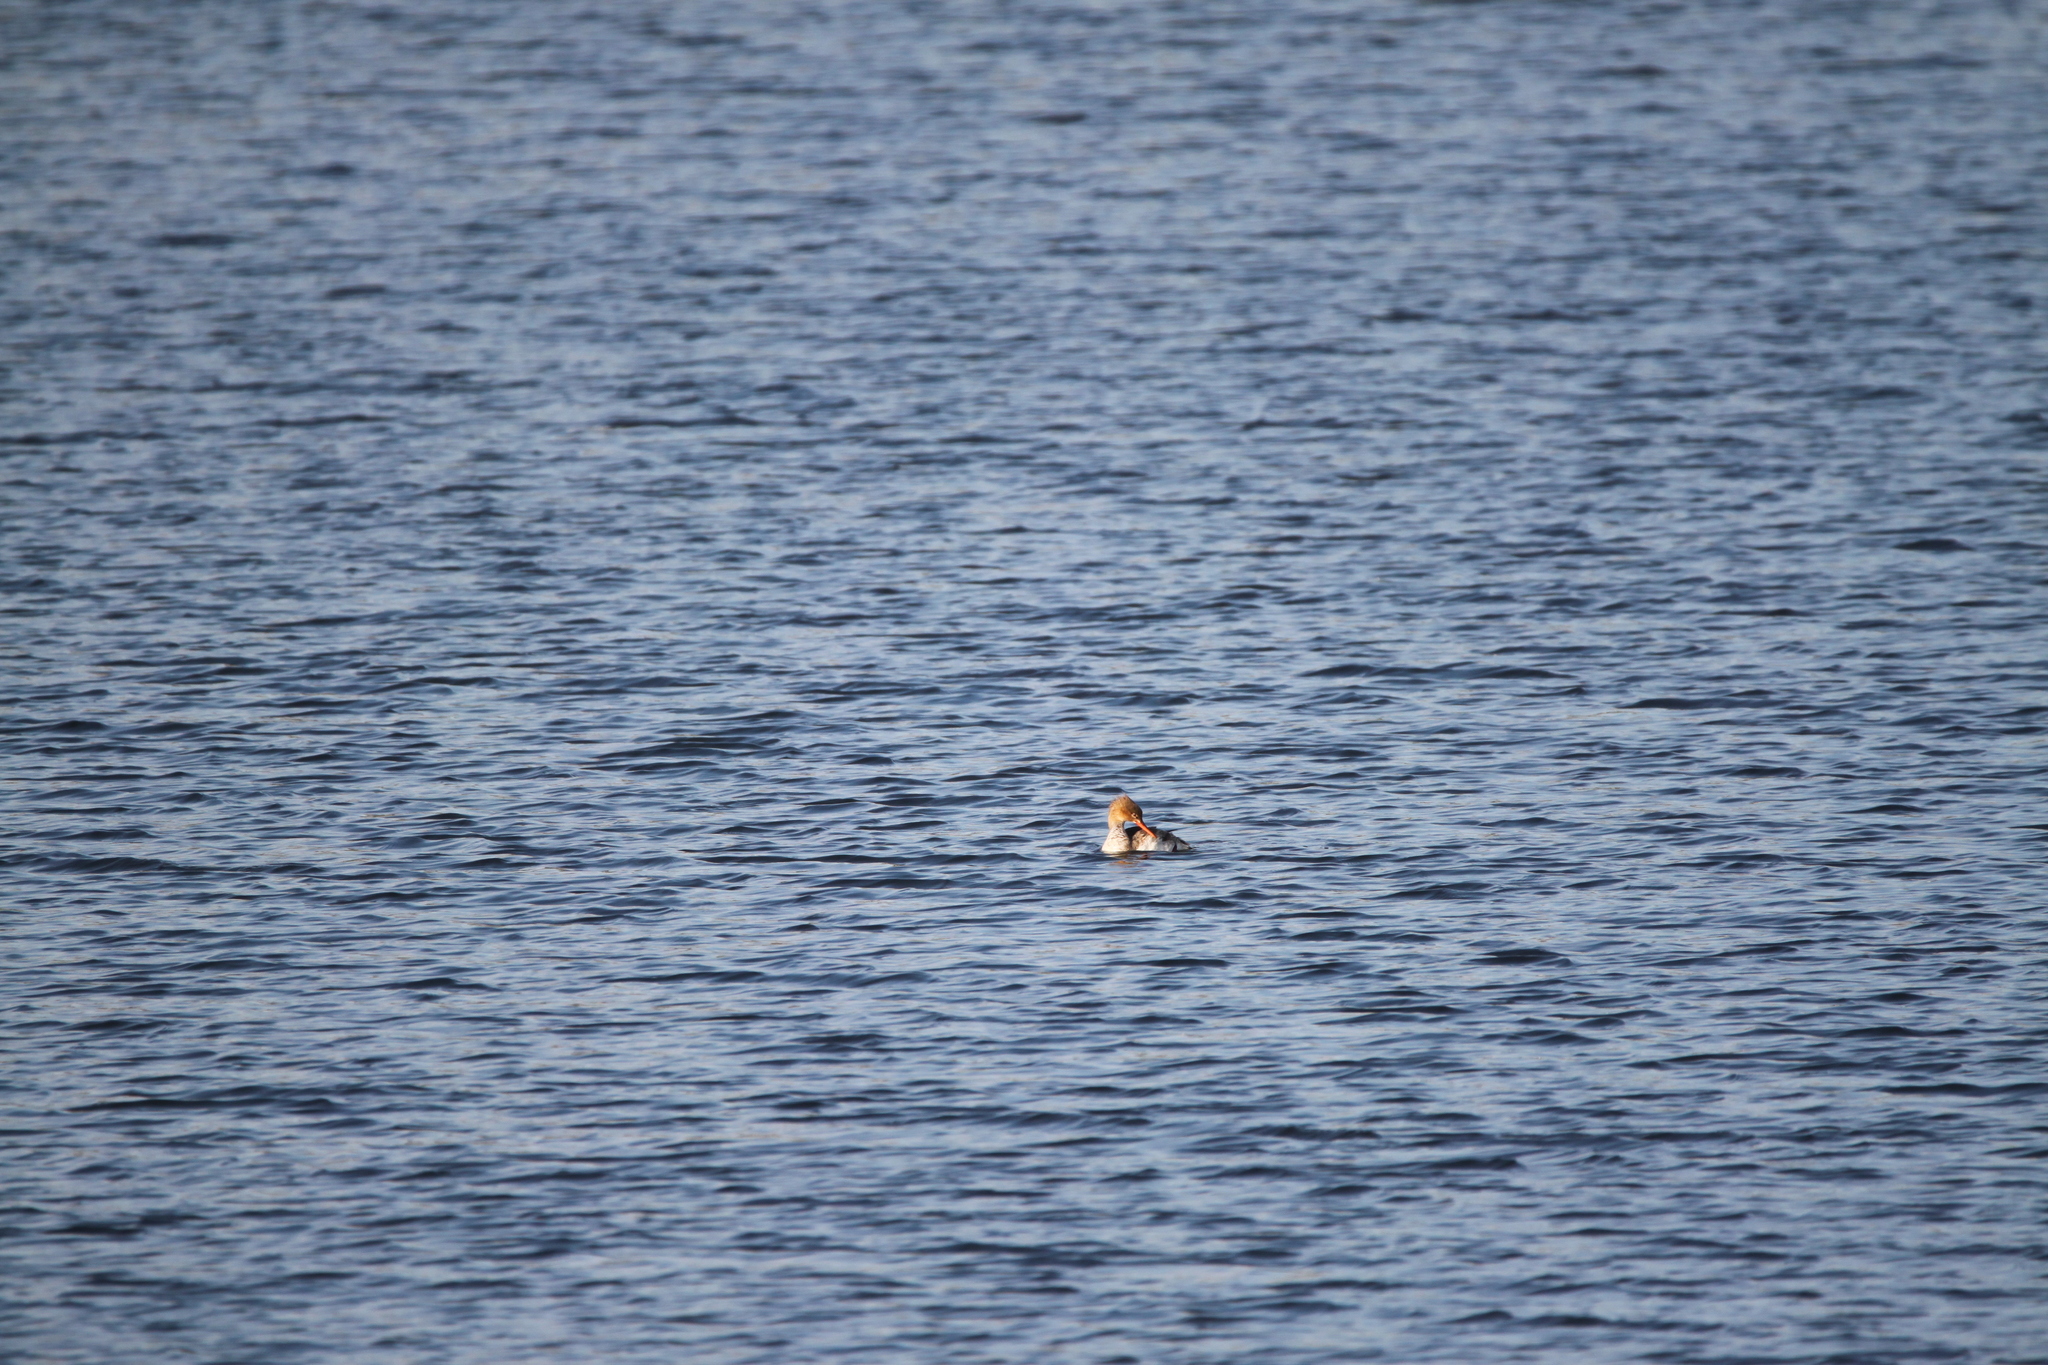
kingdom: Animalia
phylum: Chordata
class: Aves
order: Anseriformes
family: Anatidae
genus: Mergus
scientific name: Mergus merganser
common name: Common merganser
